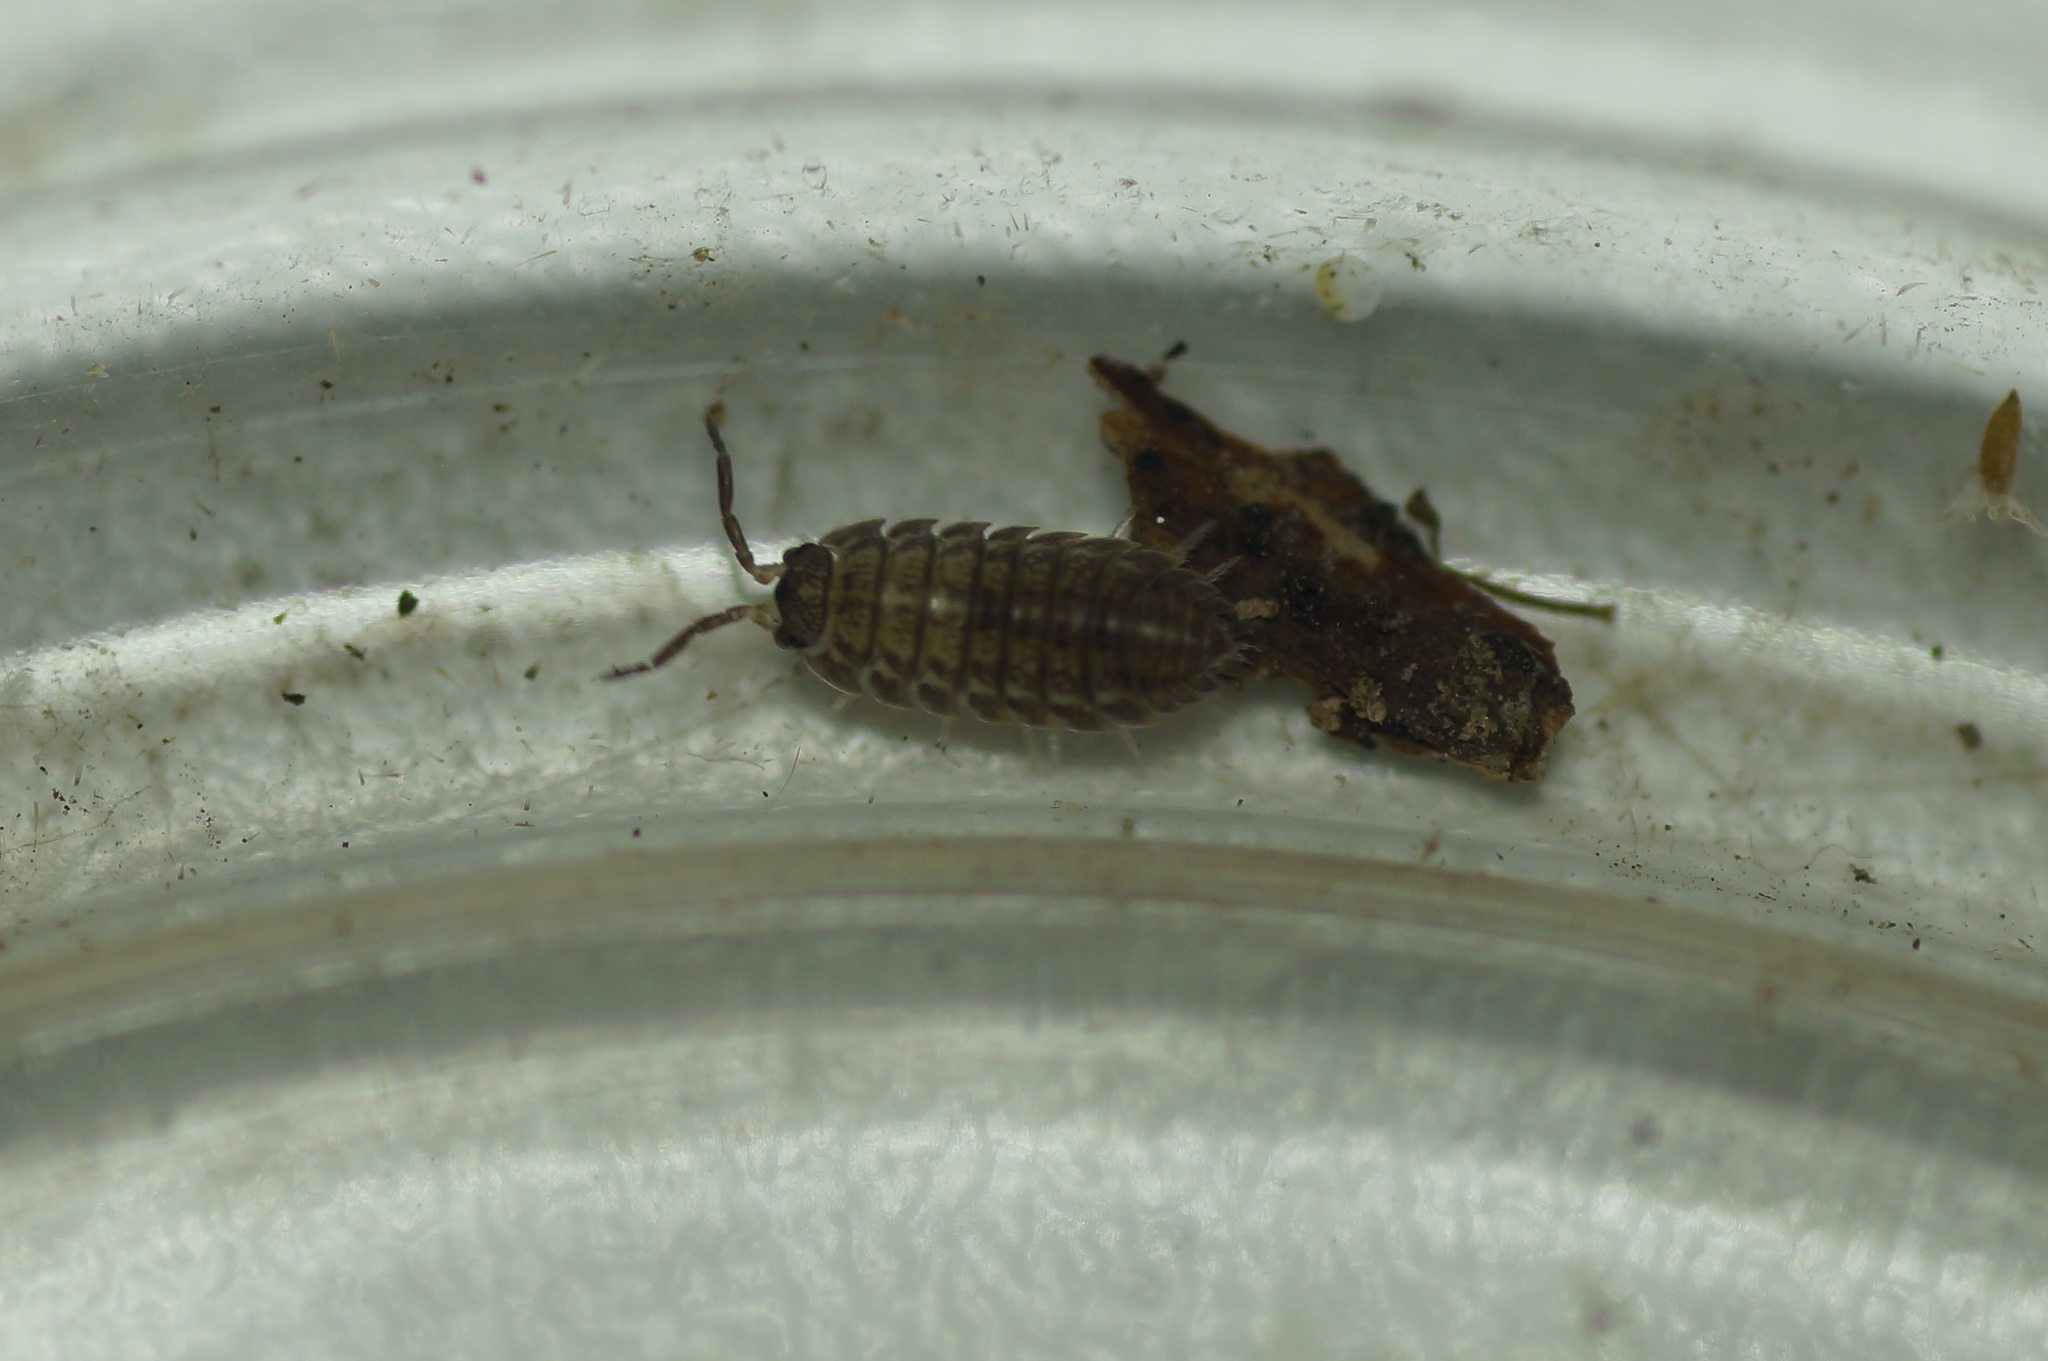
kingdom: Animalia
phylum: Arthropoda
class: Malacostraca
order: Isopoda
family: Trachelipodidae
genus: Trachelipus
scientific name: Trachelipus rathkii
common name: Isopod
